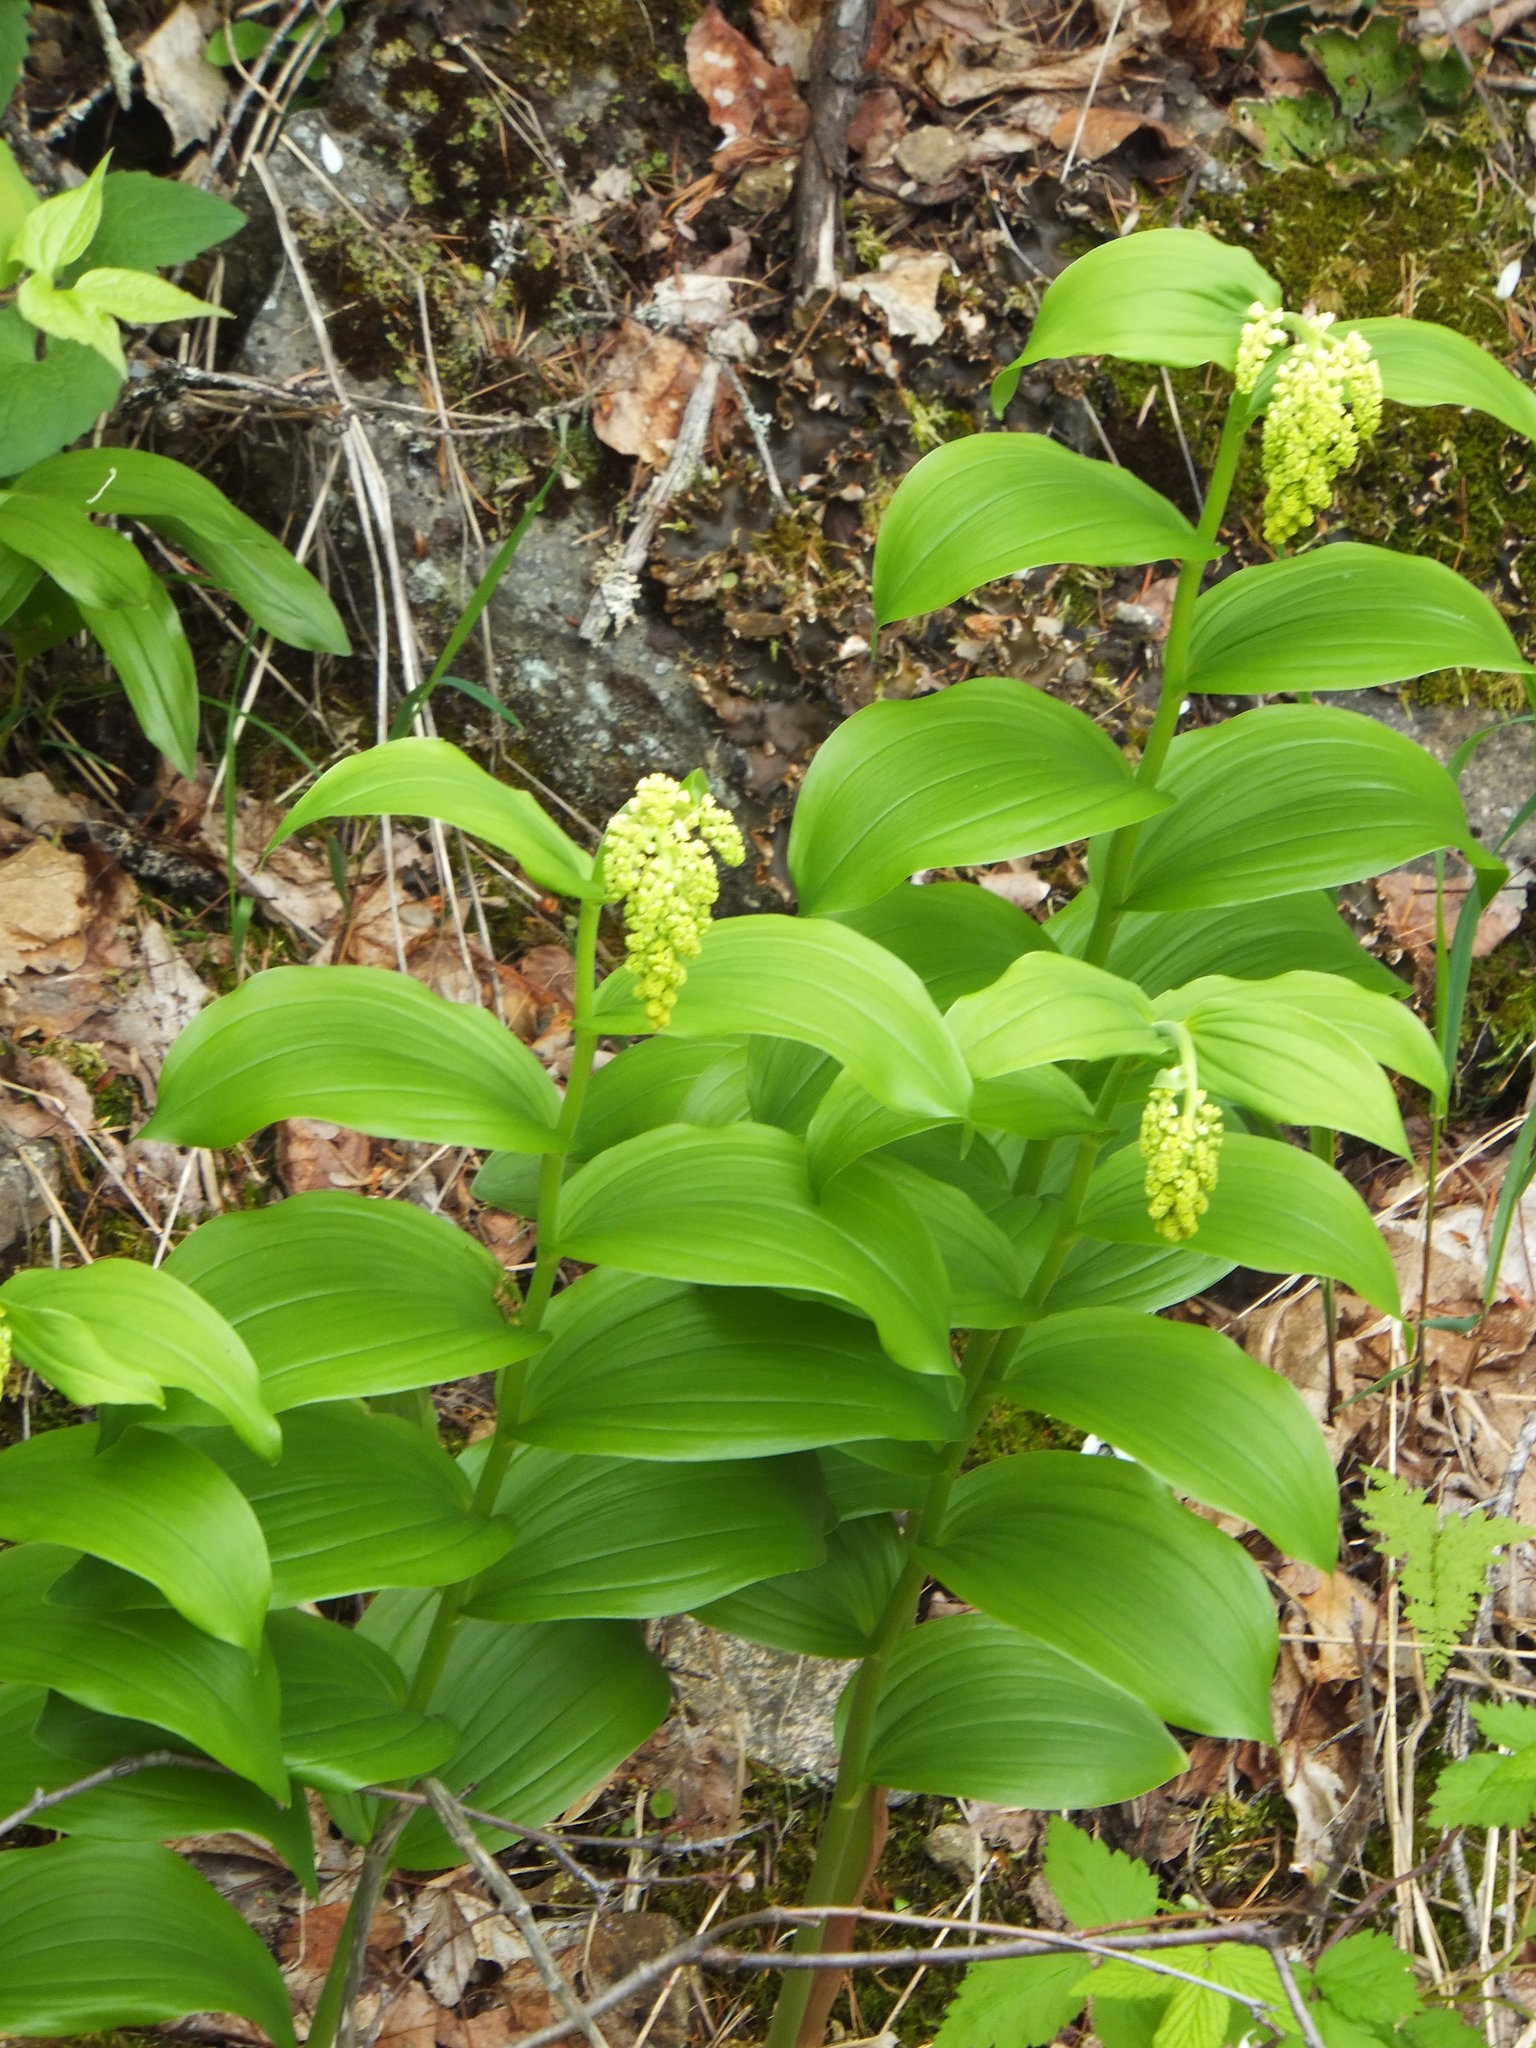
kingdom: Plantae
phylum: Tracheophyta
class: Liliopsida
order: Asparagales
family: Asparagaceae
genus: Maianthemum
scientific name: Maianthemum racemosum
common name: False spikenard
